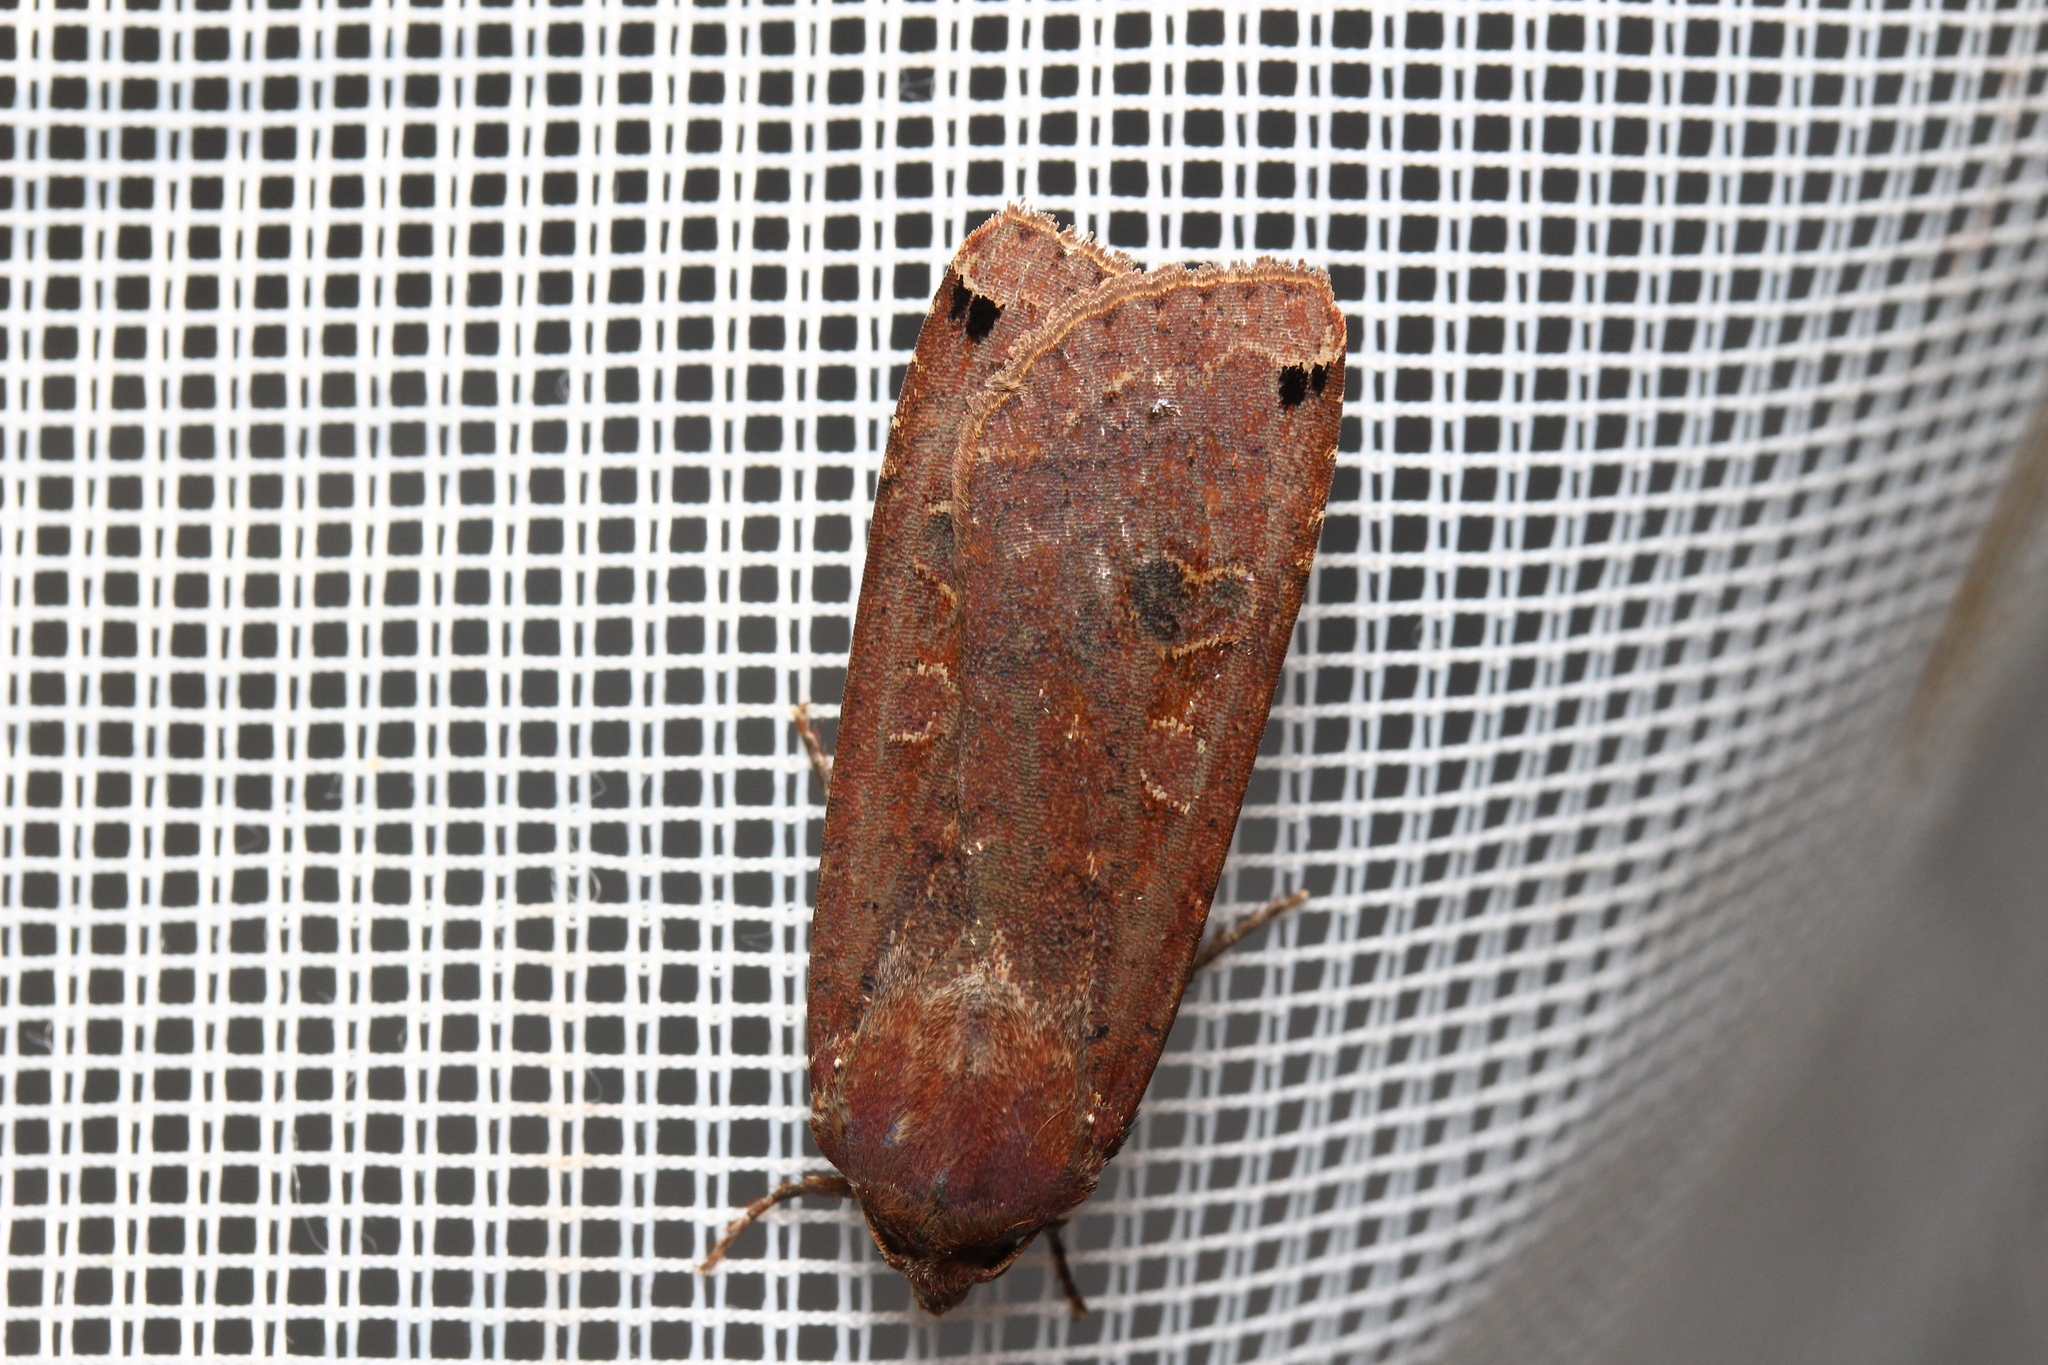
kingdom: Animalia
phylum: Arthropoda
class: Insecta
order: Lepidoptera
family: Noctuidae
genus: Noctua
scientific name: Noctua pronuba
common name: Large yellow underwing
